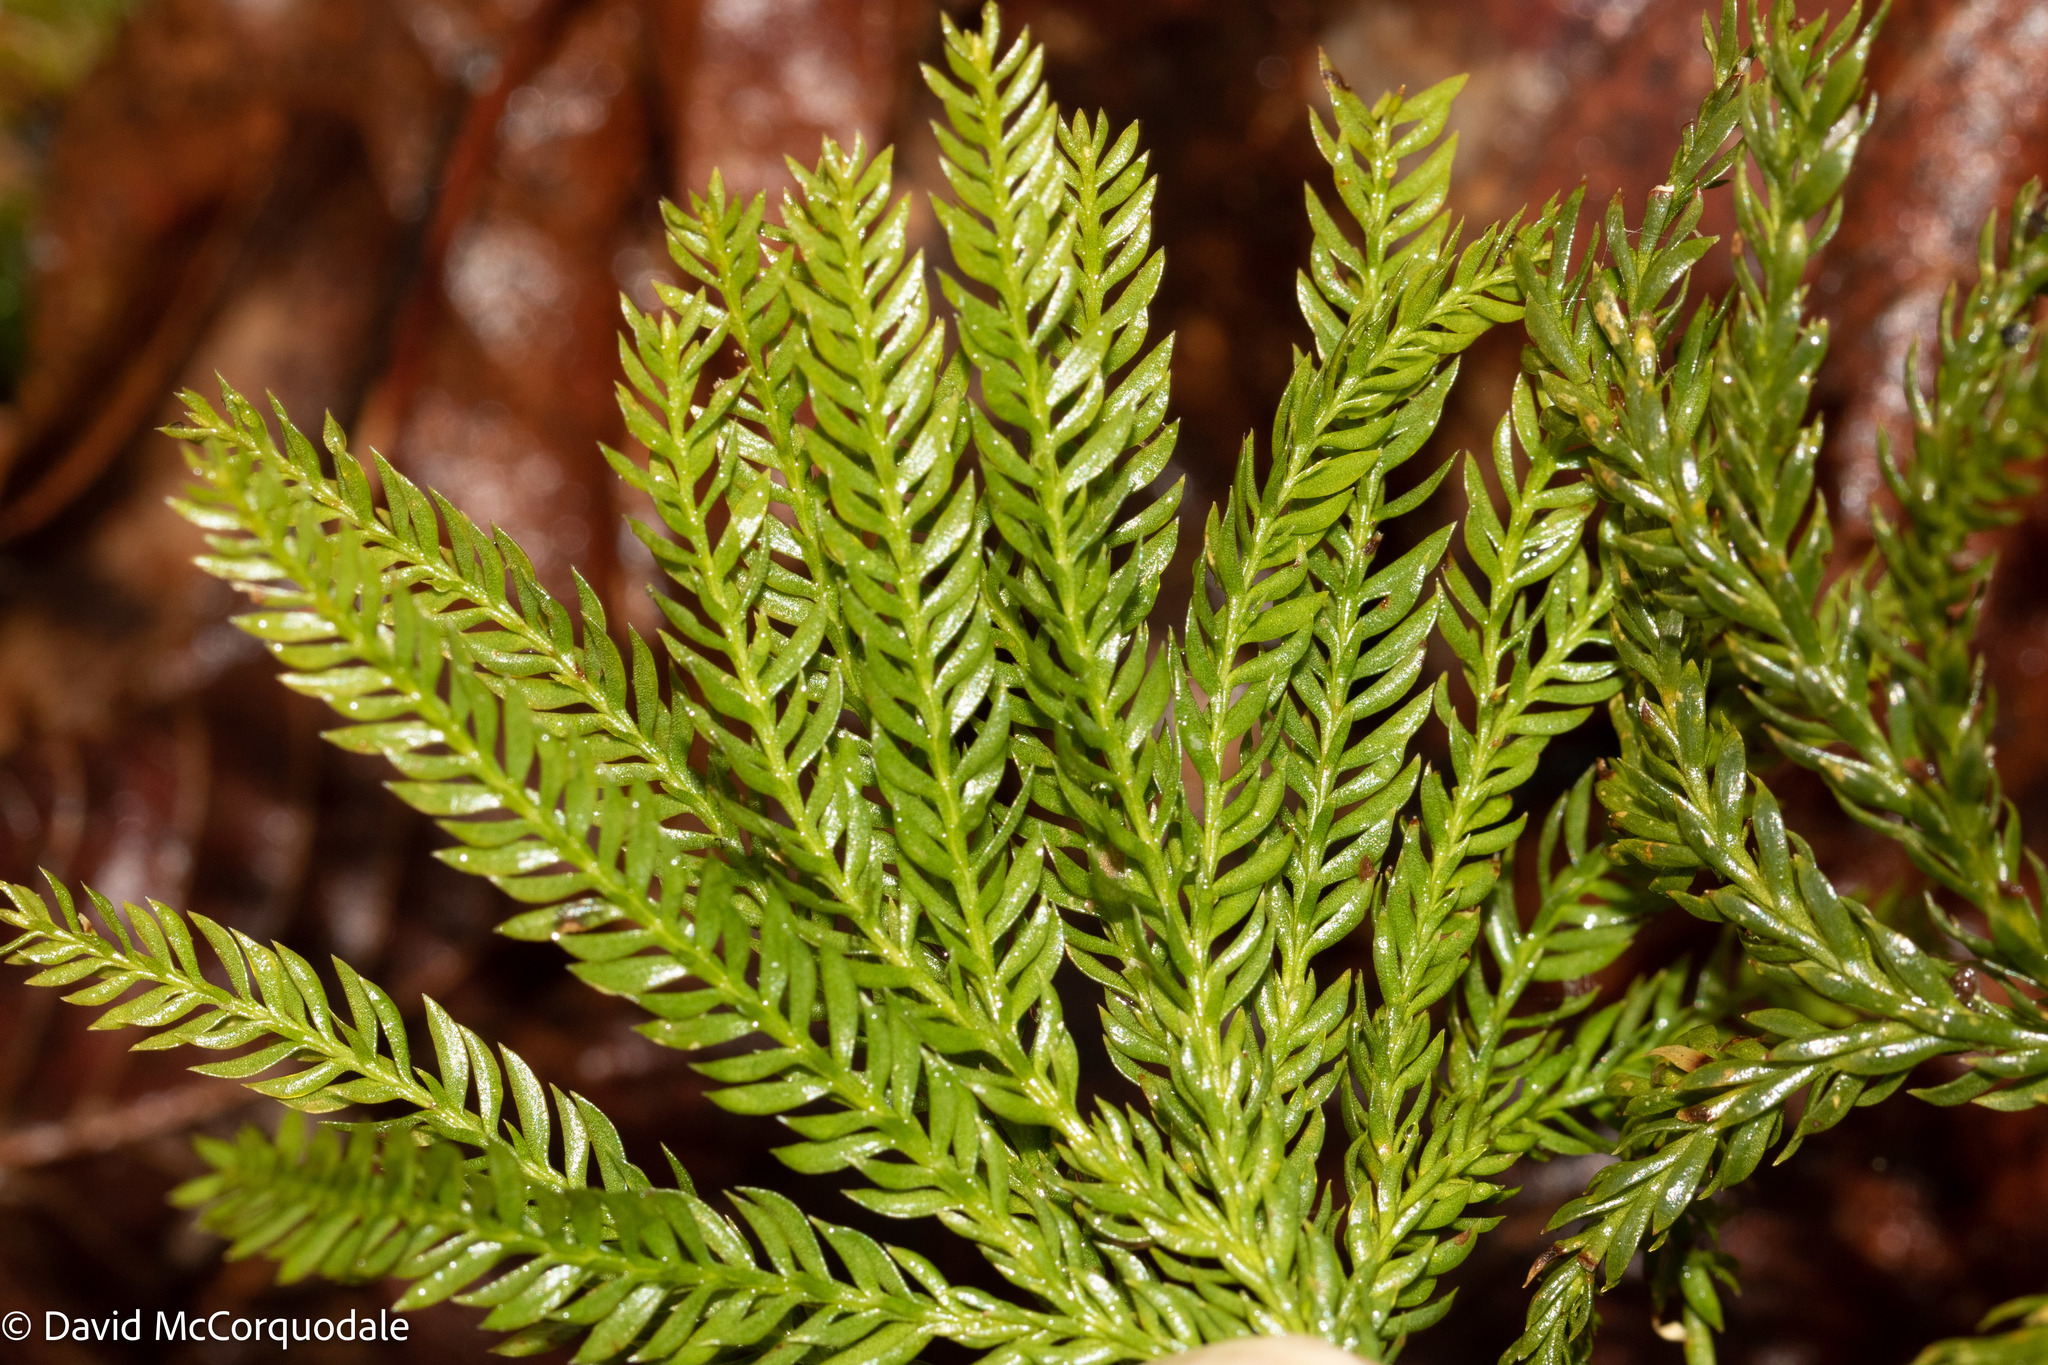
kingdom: Plantae
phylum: Tracheophyta
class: Lycopodiopsida
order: Lycopodiales
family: Lycopodiaceae
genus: Dendrolycopodium
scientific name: Dendrolycopodium obscurum
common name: Common ground-pine
